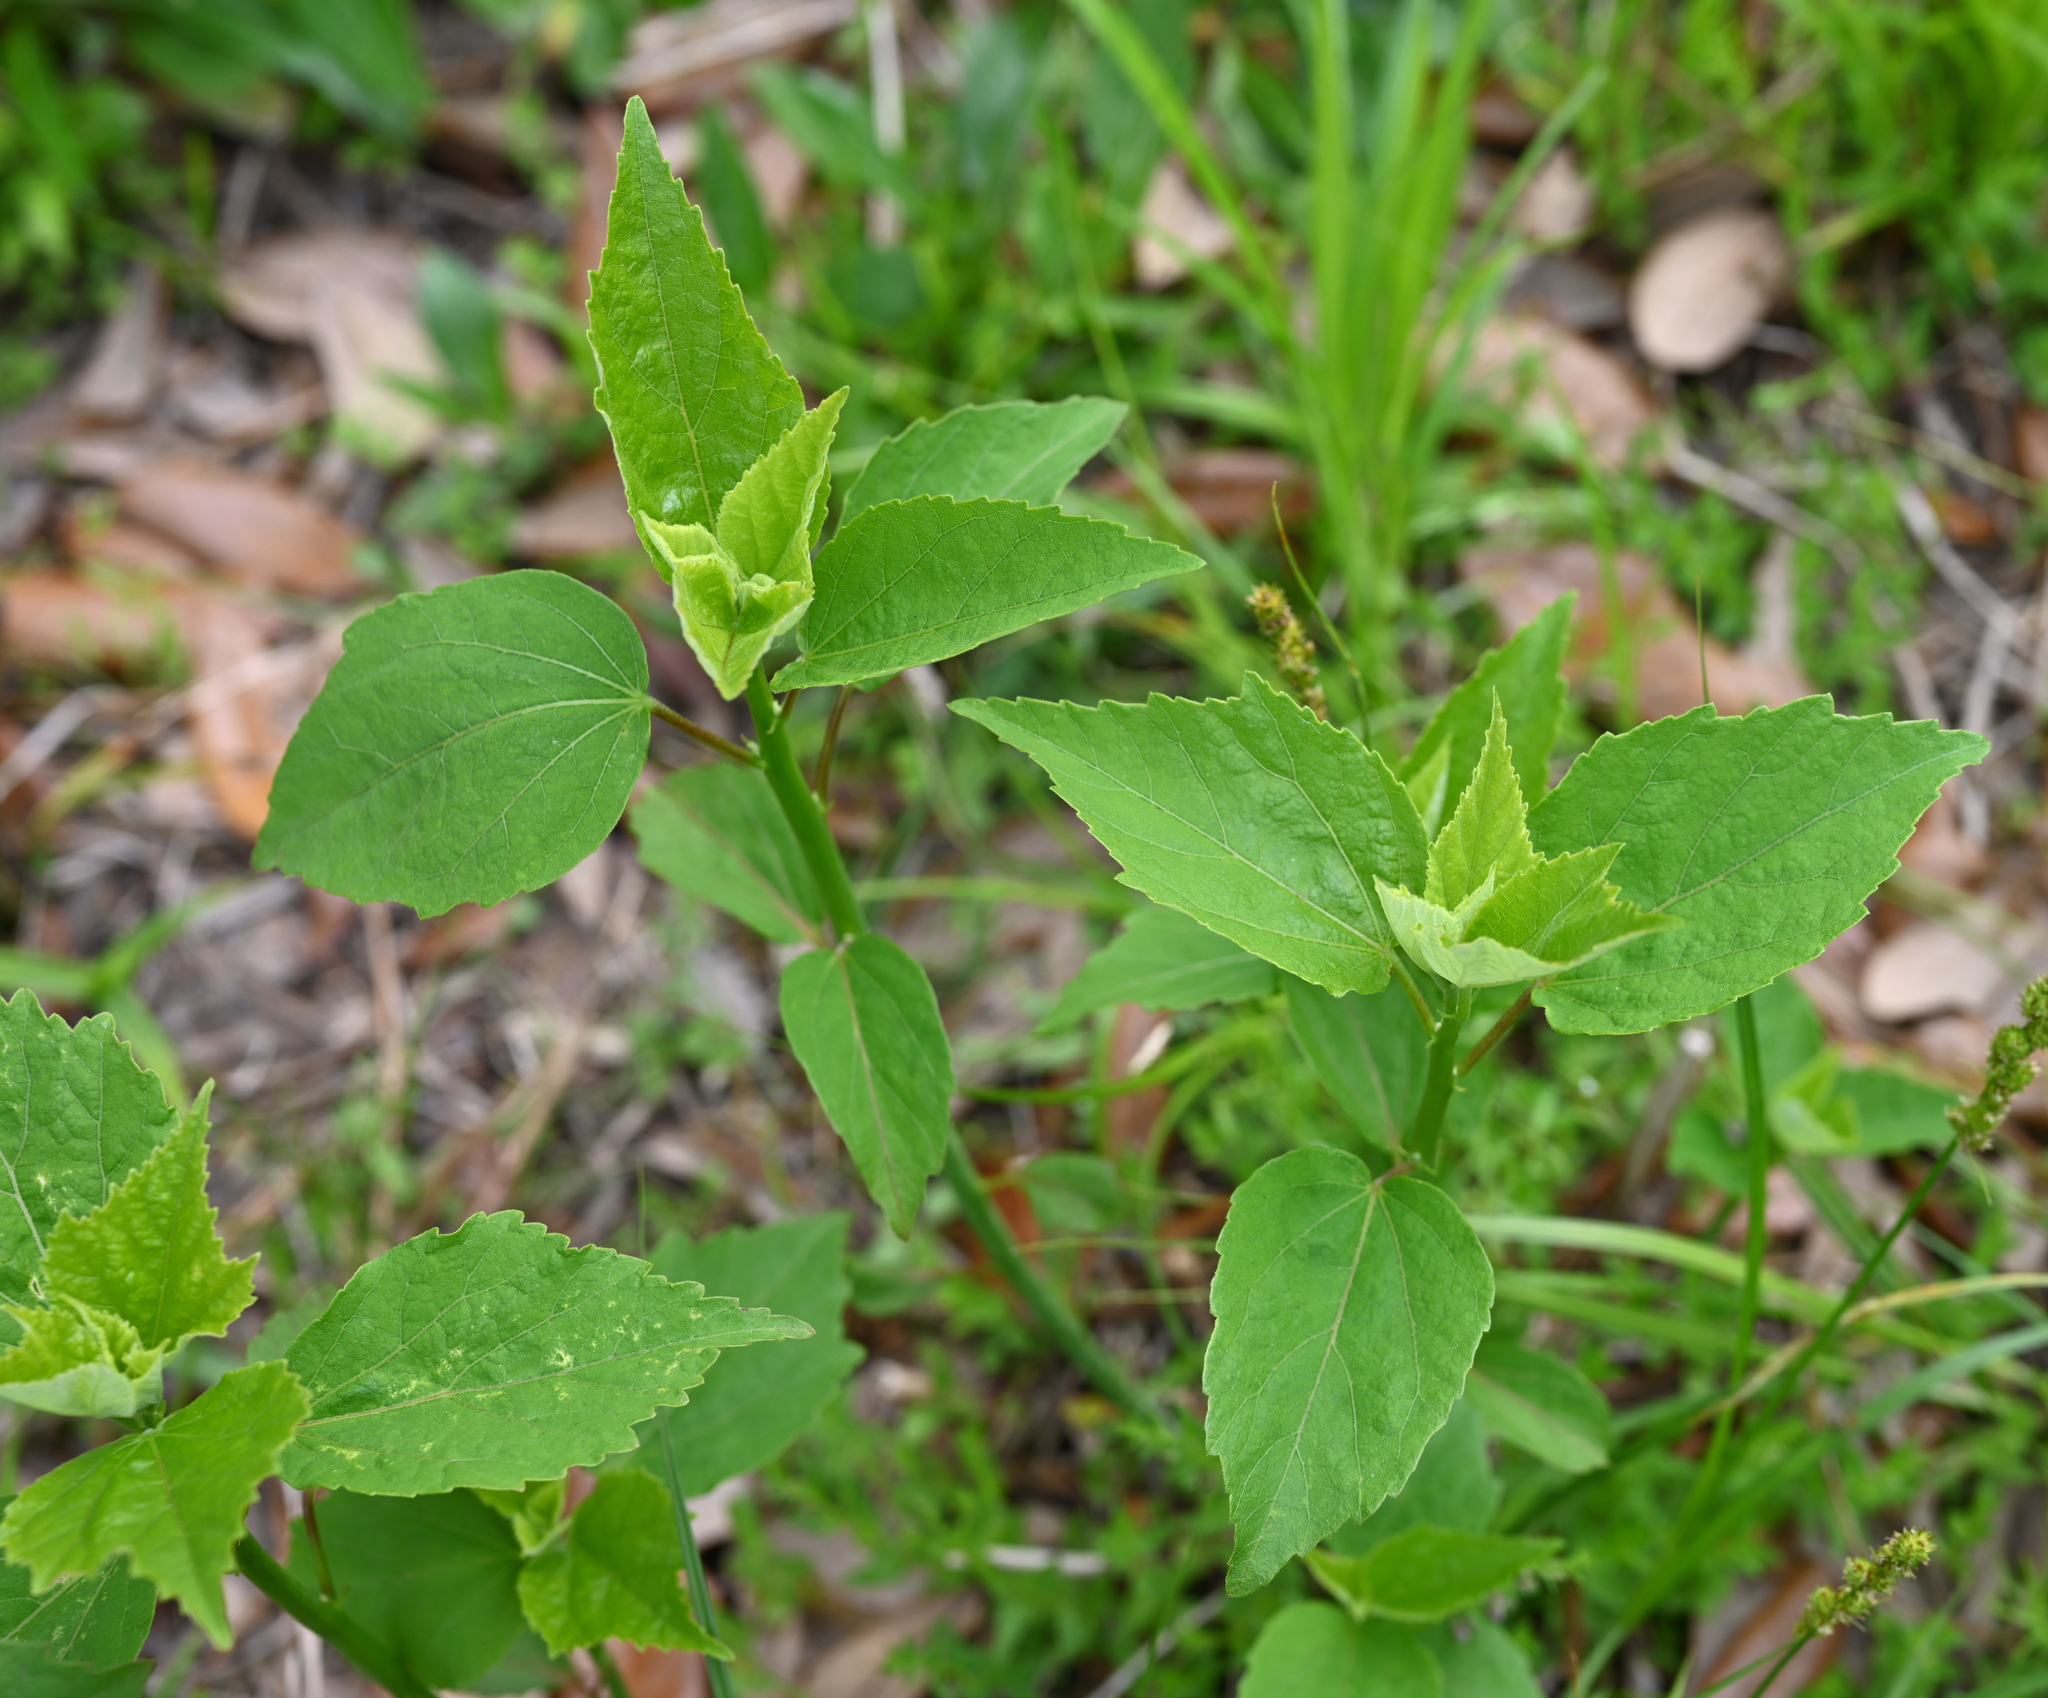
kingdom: Plantae
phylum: Tracheophyta
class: Magnoliopsida
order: Malvales
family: Malvaceae
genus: Hibiscus
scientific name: Hibiscus moscheutos
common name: Common rose-mallow
